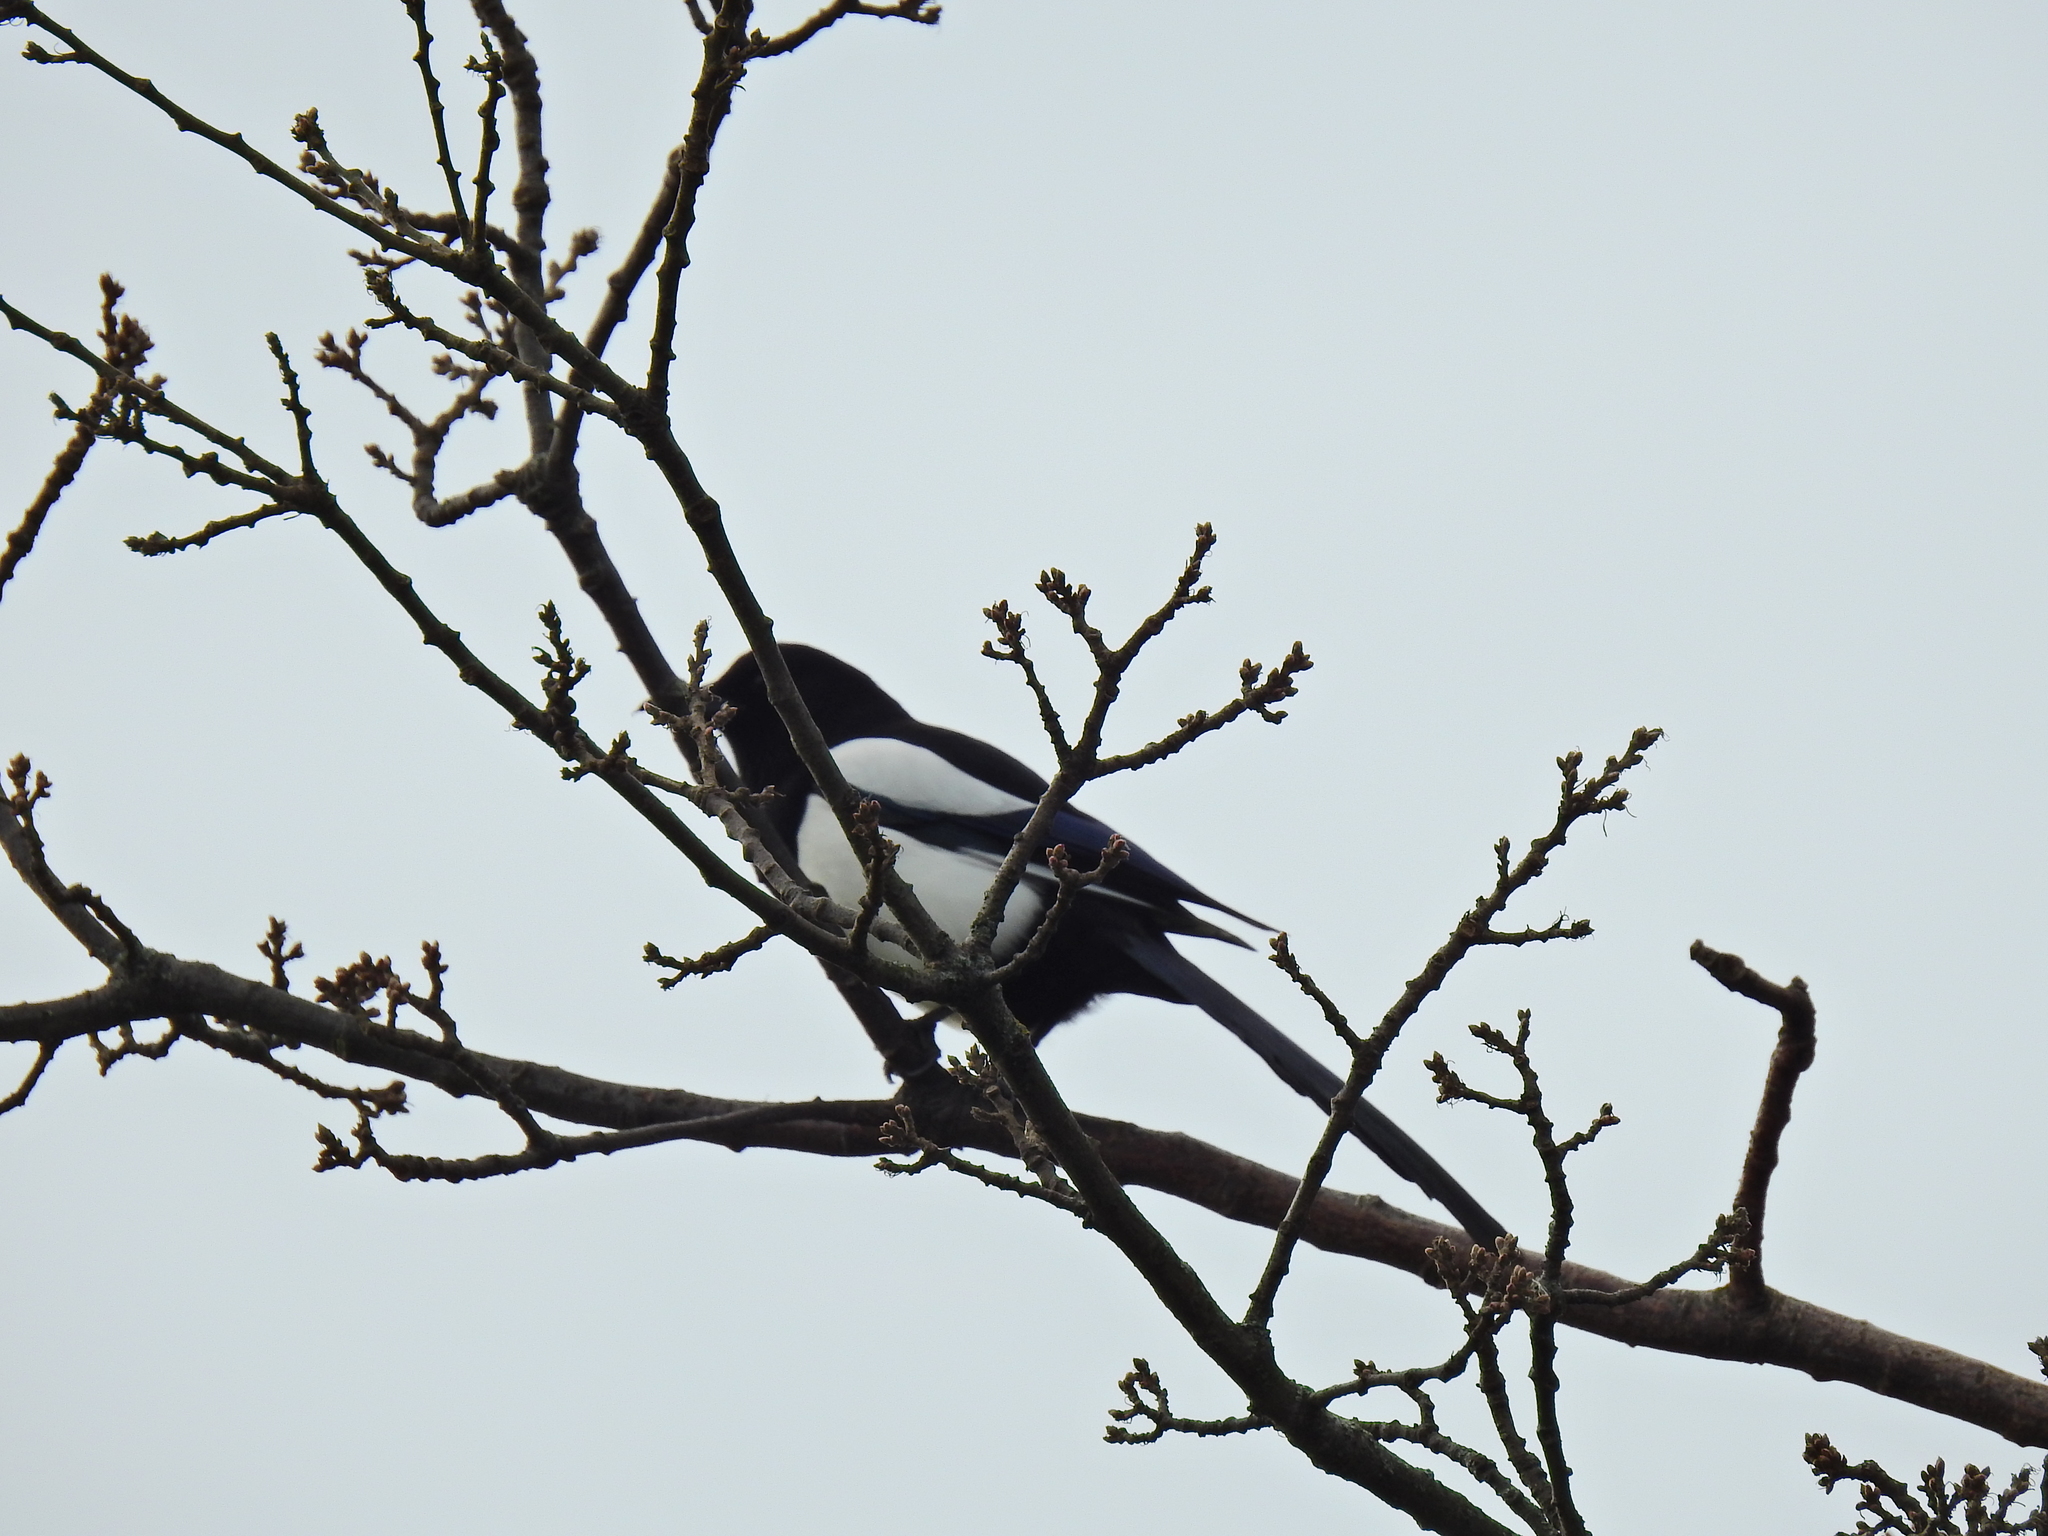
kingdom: Animalia
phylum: Chordata
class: Aves
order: Passeriformes
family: Corvidae
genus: Pica
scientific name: Pica pica
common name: Eurasian magpie
